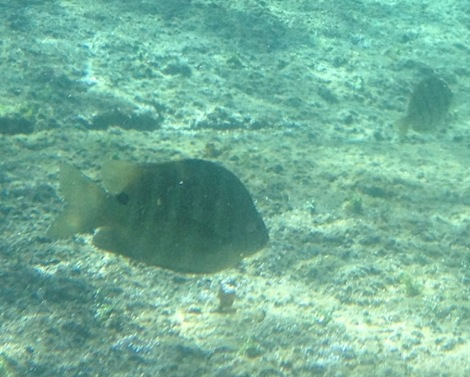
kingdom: Animalia
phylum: Chordata
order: Perciformes
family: Pomacentridae
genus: Abudefduf
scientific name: Abudefduf sordidus
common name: Blackspot sergeant
